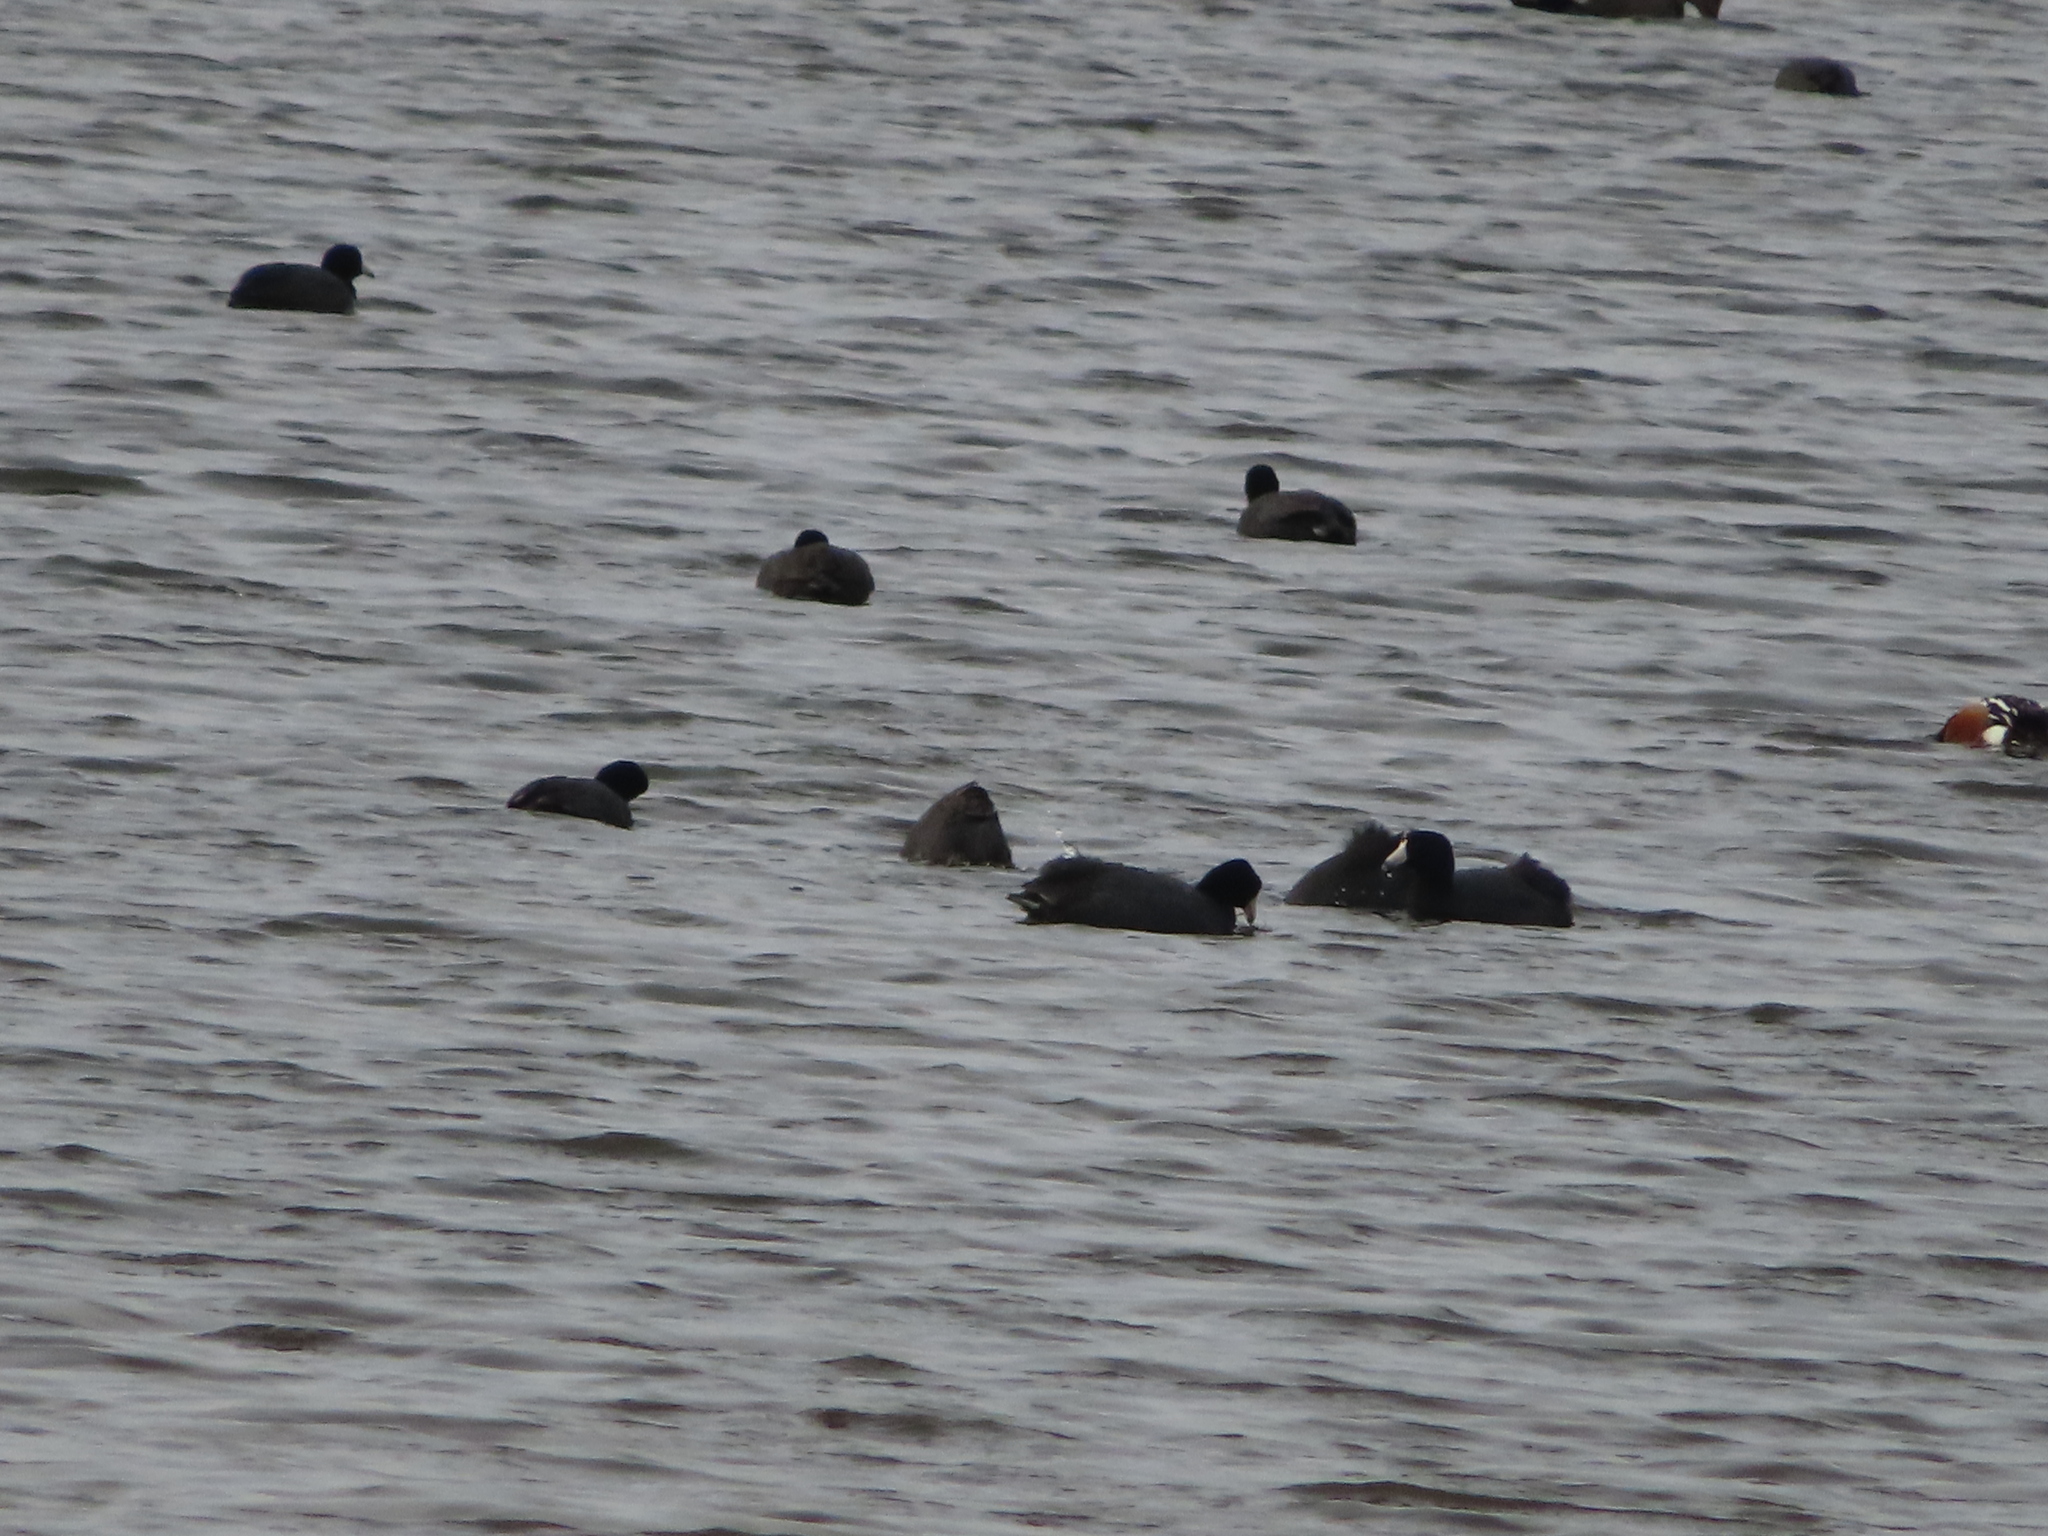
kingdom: Animalia
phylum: Chordata
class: Aves
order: Gruiformes
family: Rallidae
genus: Fulica
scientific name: Fulica americana
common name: American coot
